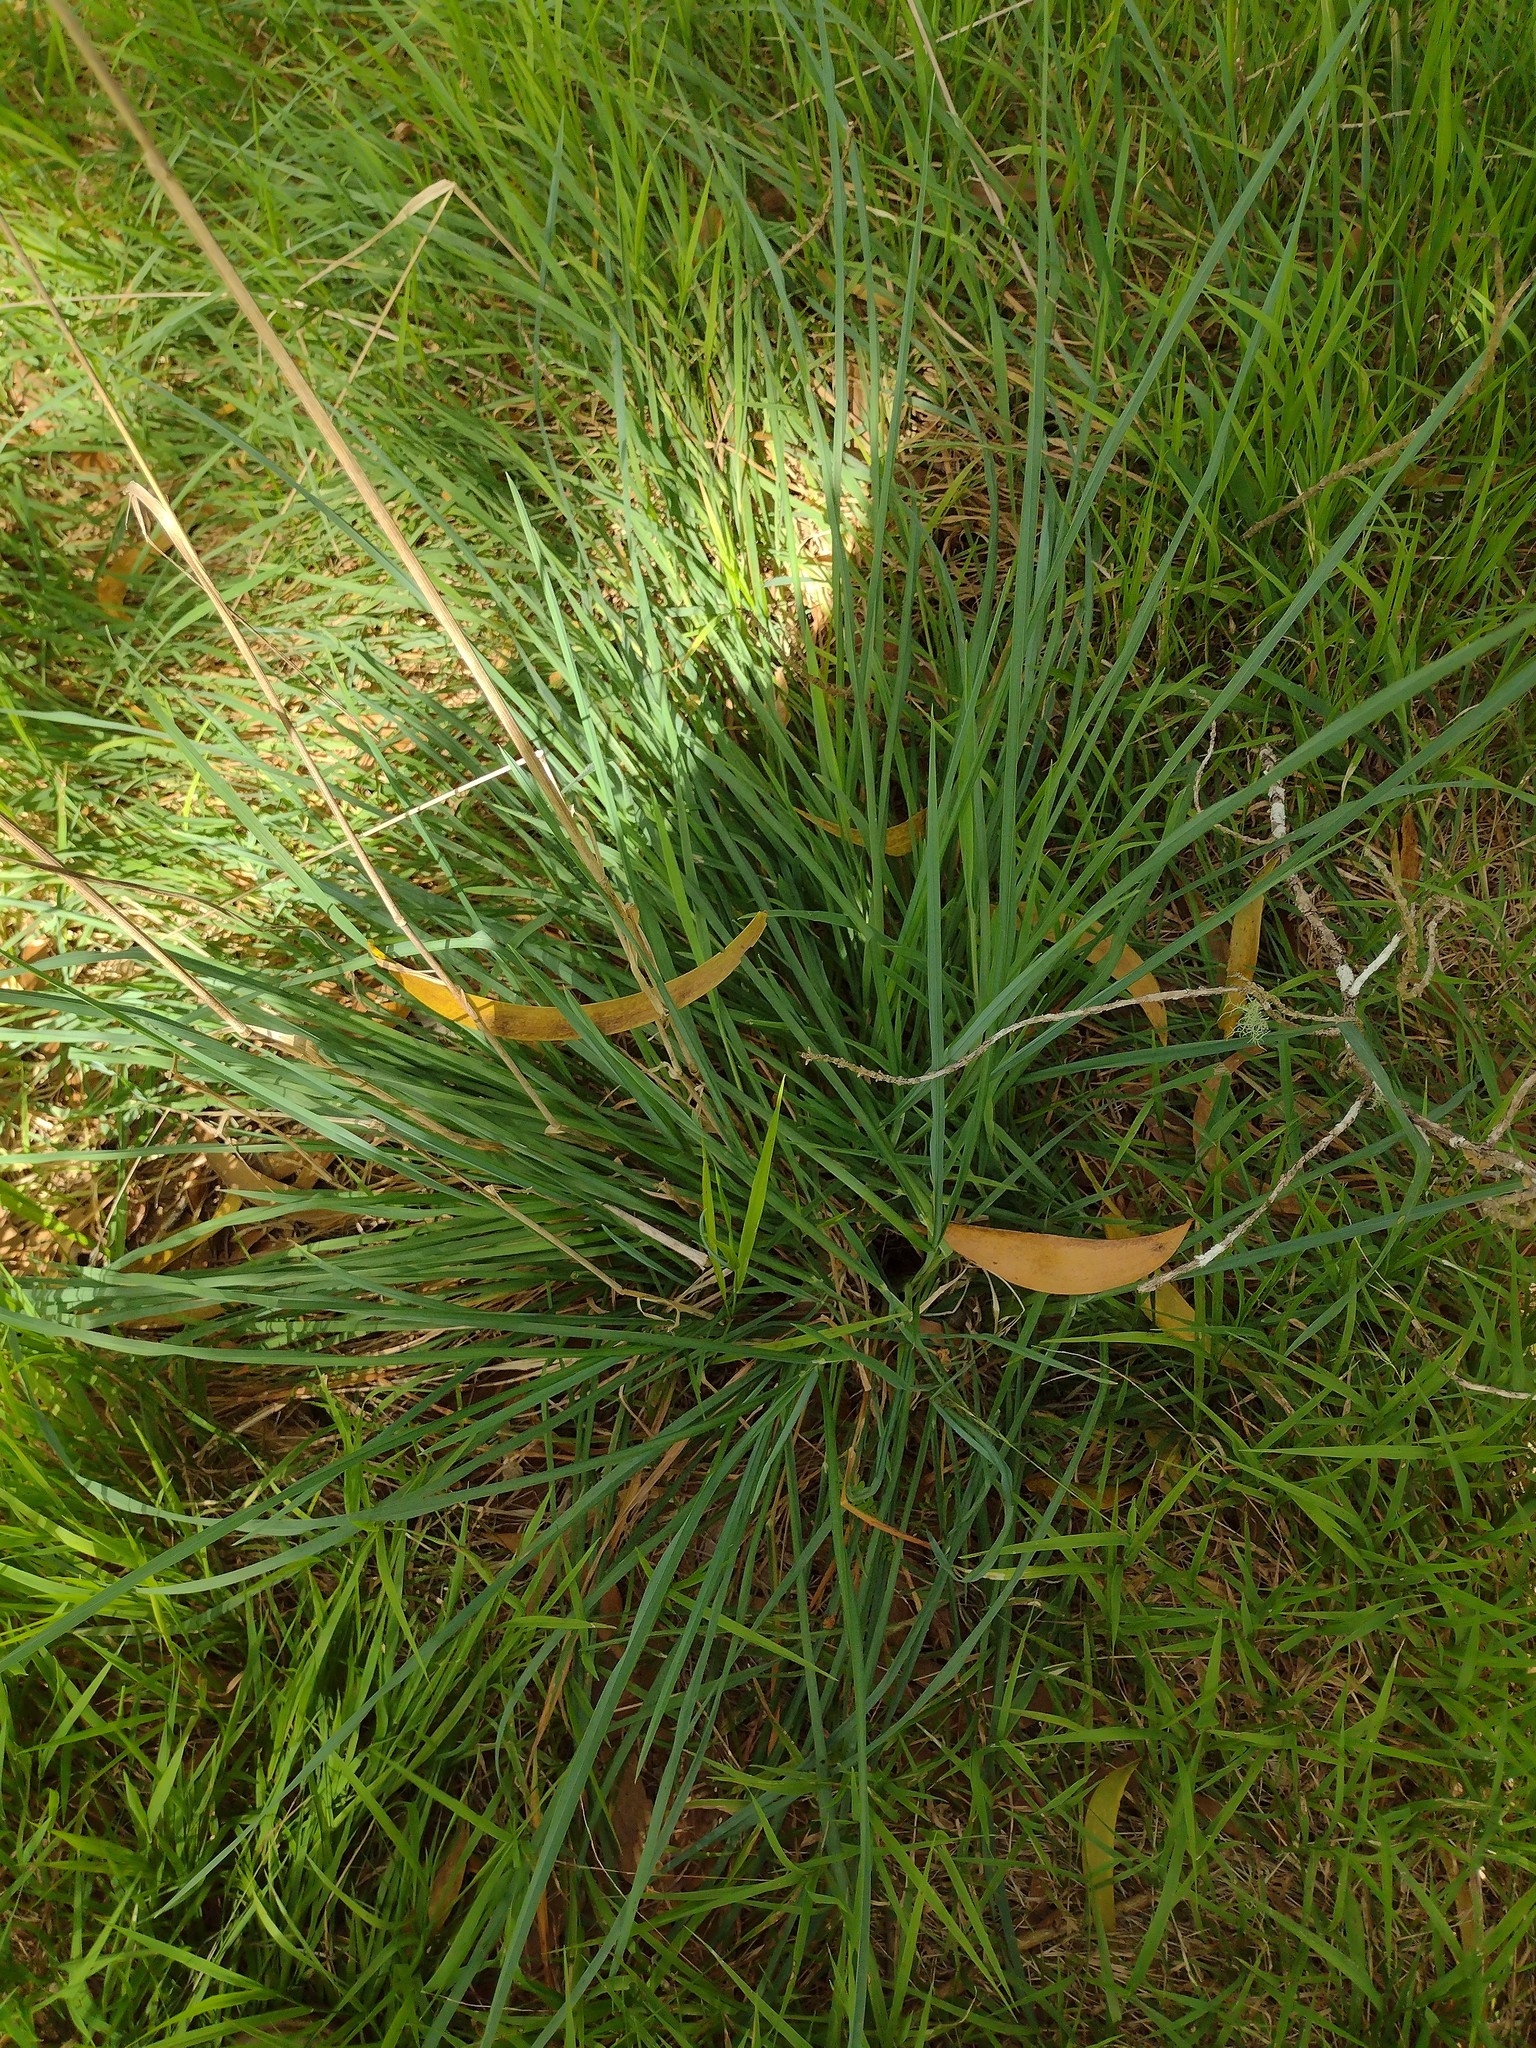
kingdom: Plantae
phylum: Tracheophyta
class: Liliopsida
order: Poales
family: Poaceae
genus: Dactylis
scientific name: Dactylis glomerata
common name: Orchardgrass
